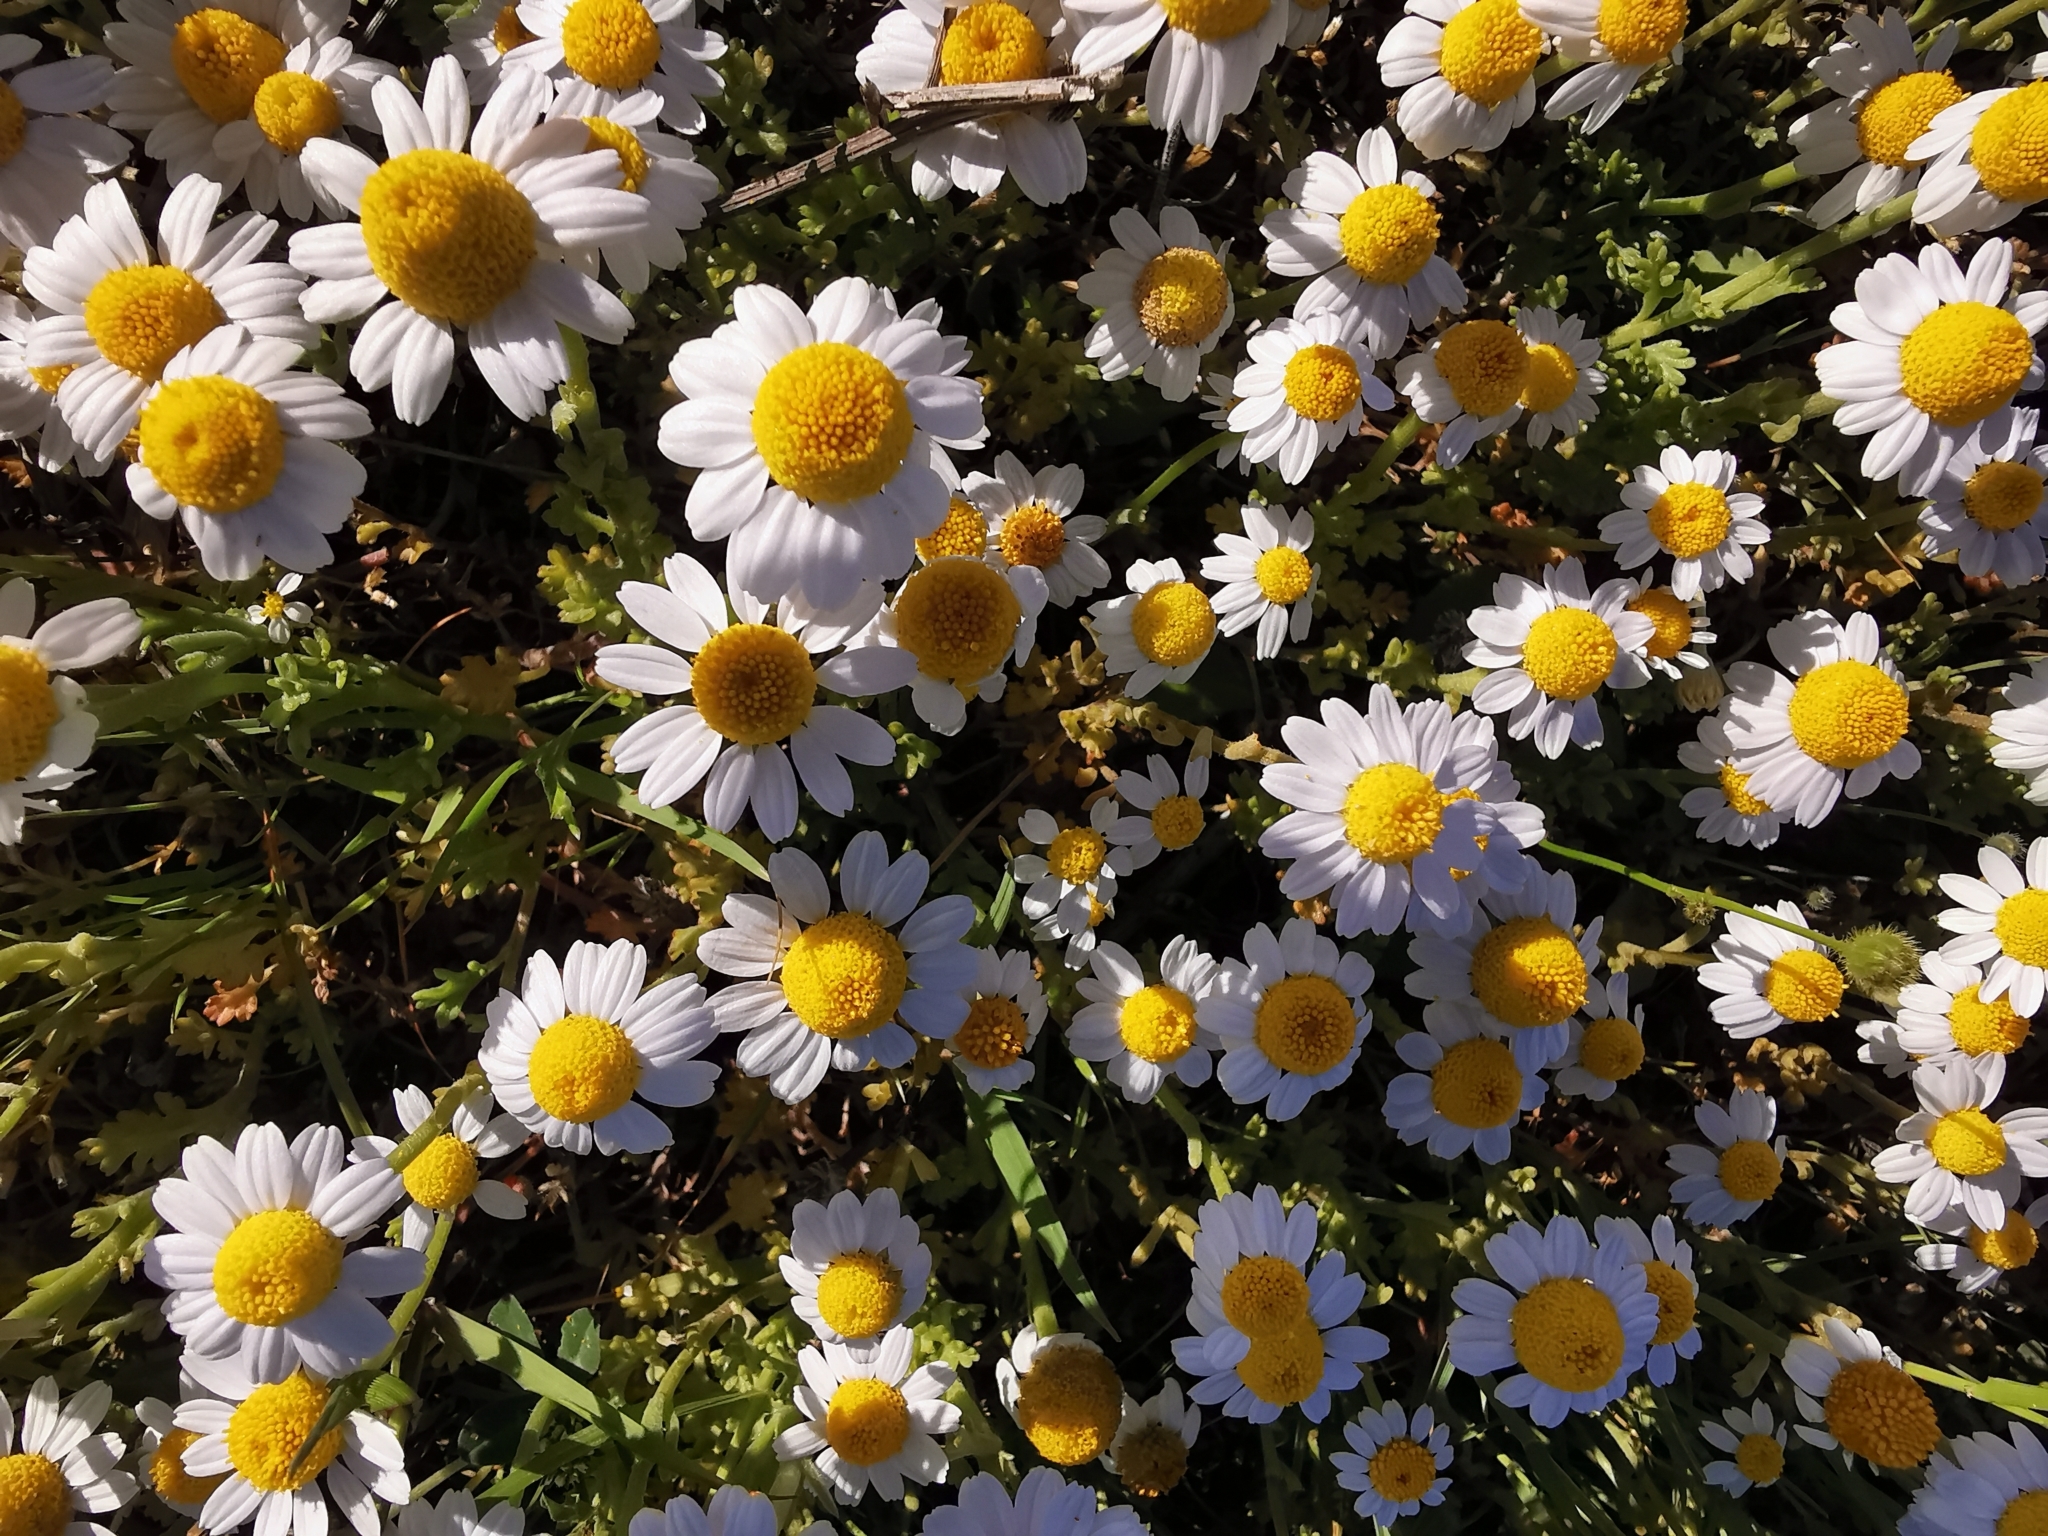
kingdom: Plantae
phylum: Tracheophyta
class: Magnoliopsida
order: Asterales
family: Asteraceae
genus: Matricaria
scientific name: Matricaria chamomilla
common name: Scented mayweed
